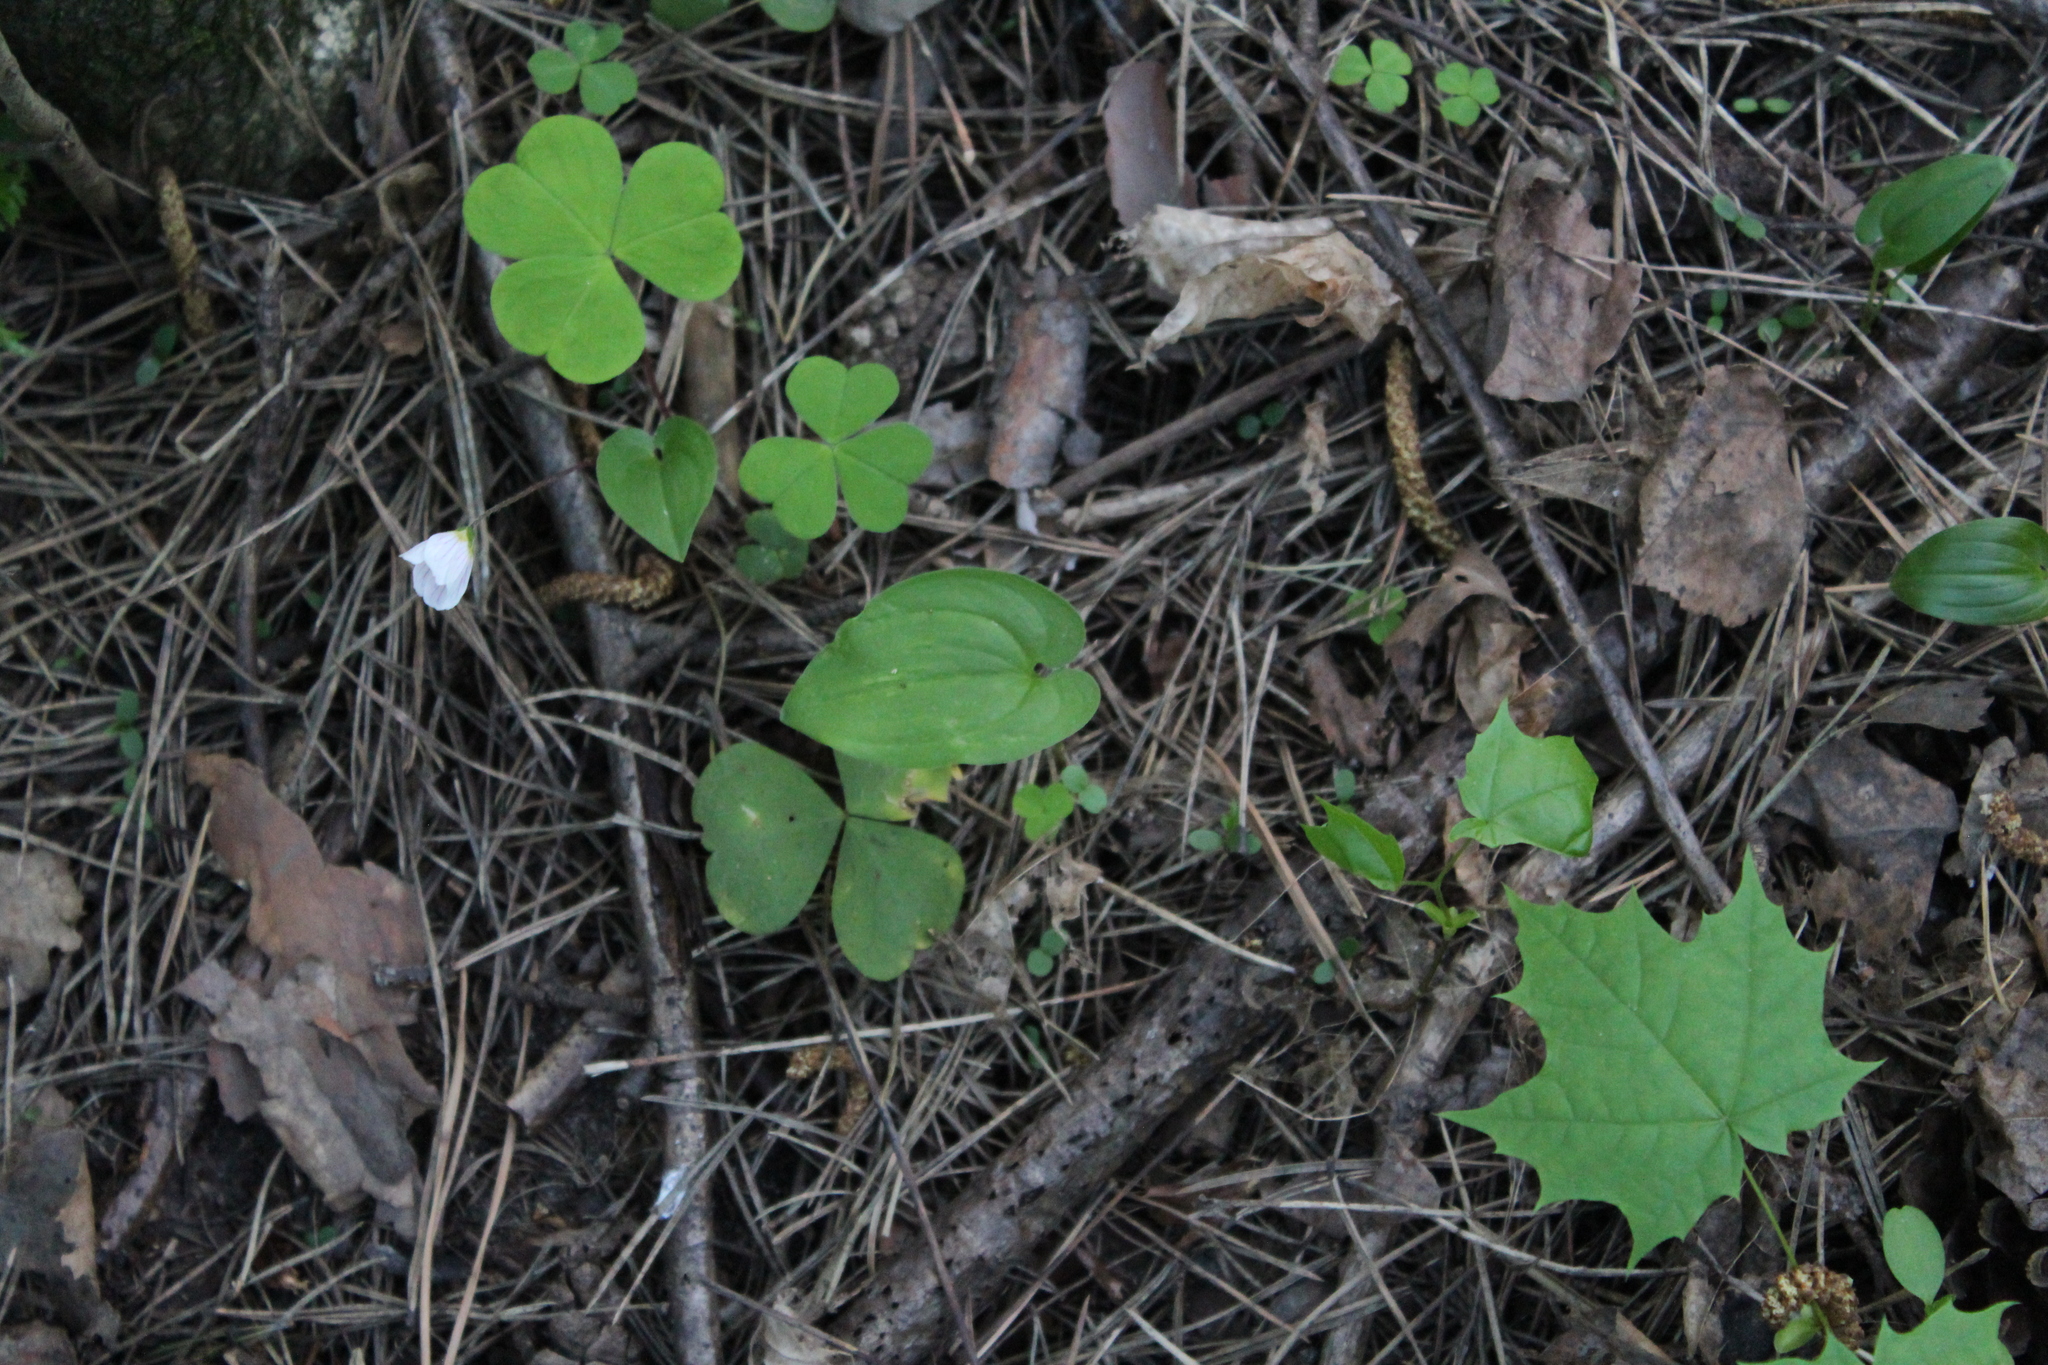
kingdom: Plantae
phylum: Tracheophyta
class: Liliopsida
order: Asparagales
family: Asparagaceae
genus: Maianthemum
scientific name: Maianthemum bifolium
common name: May lily
